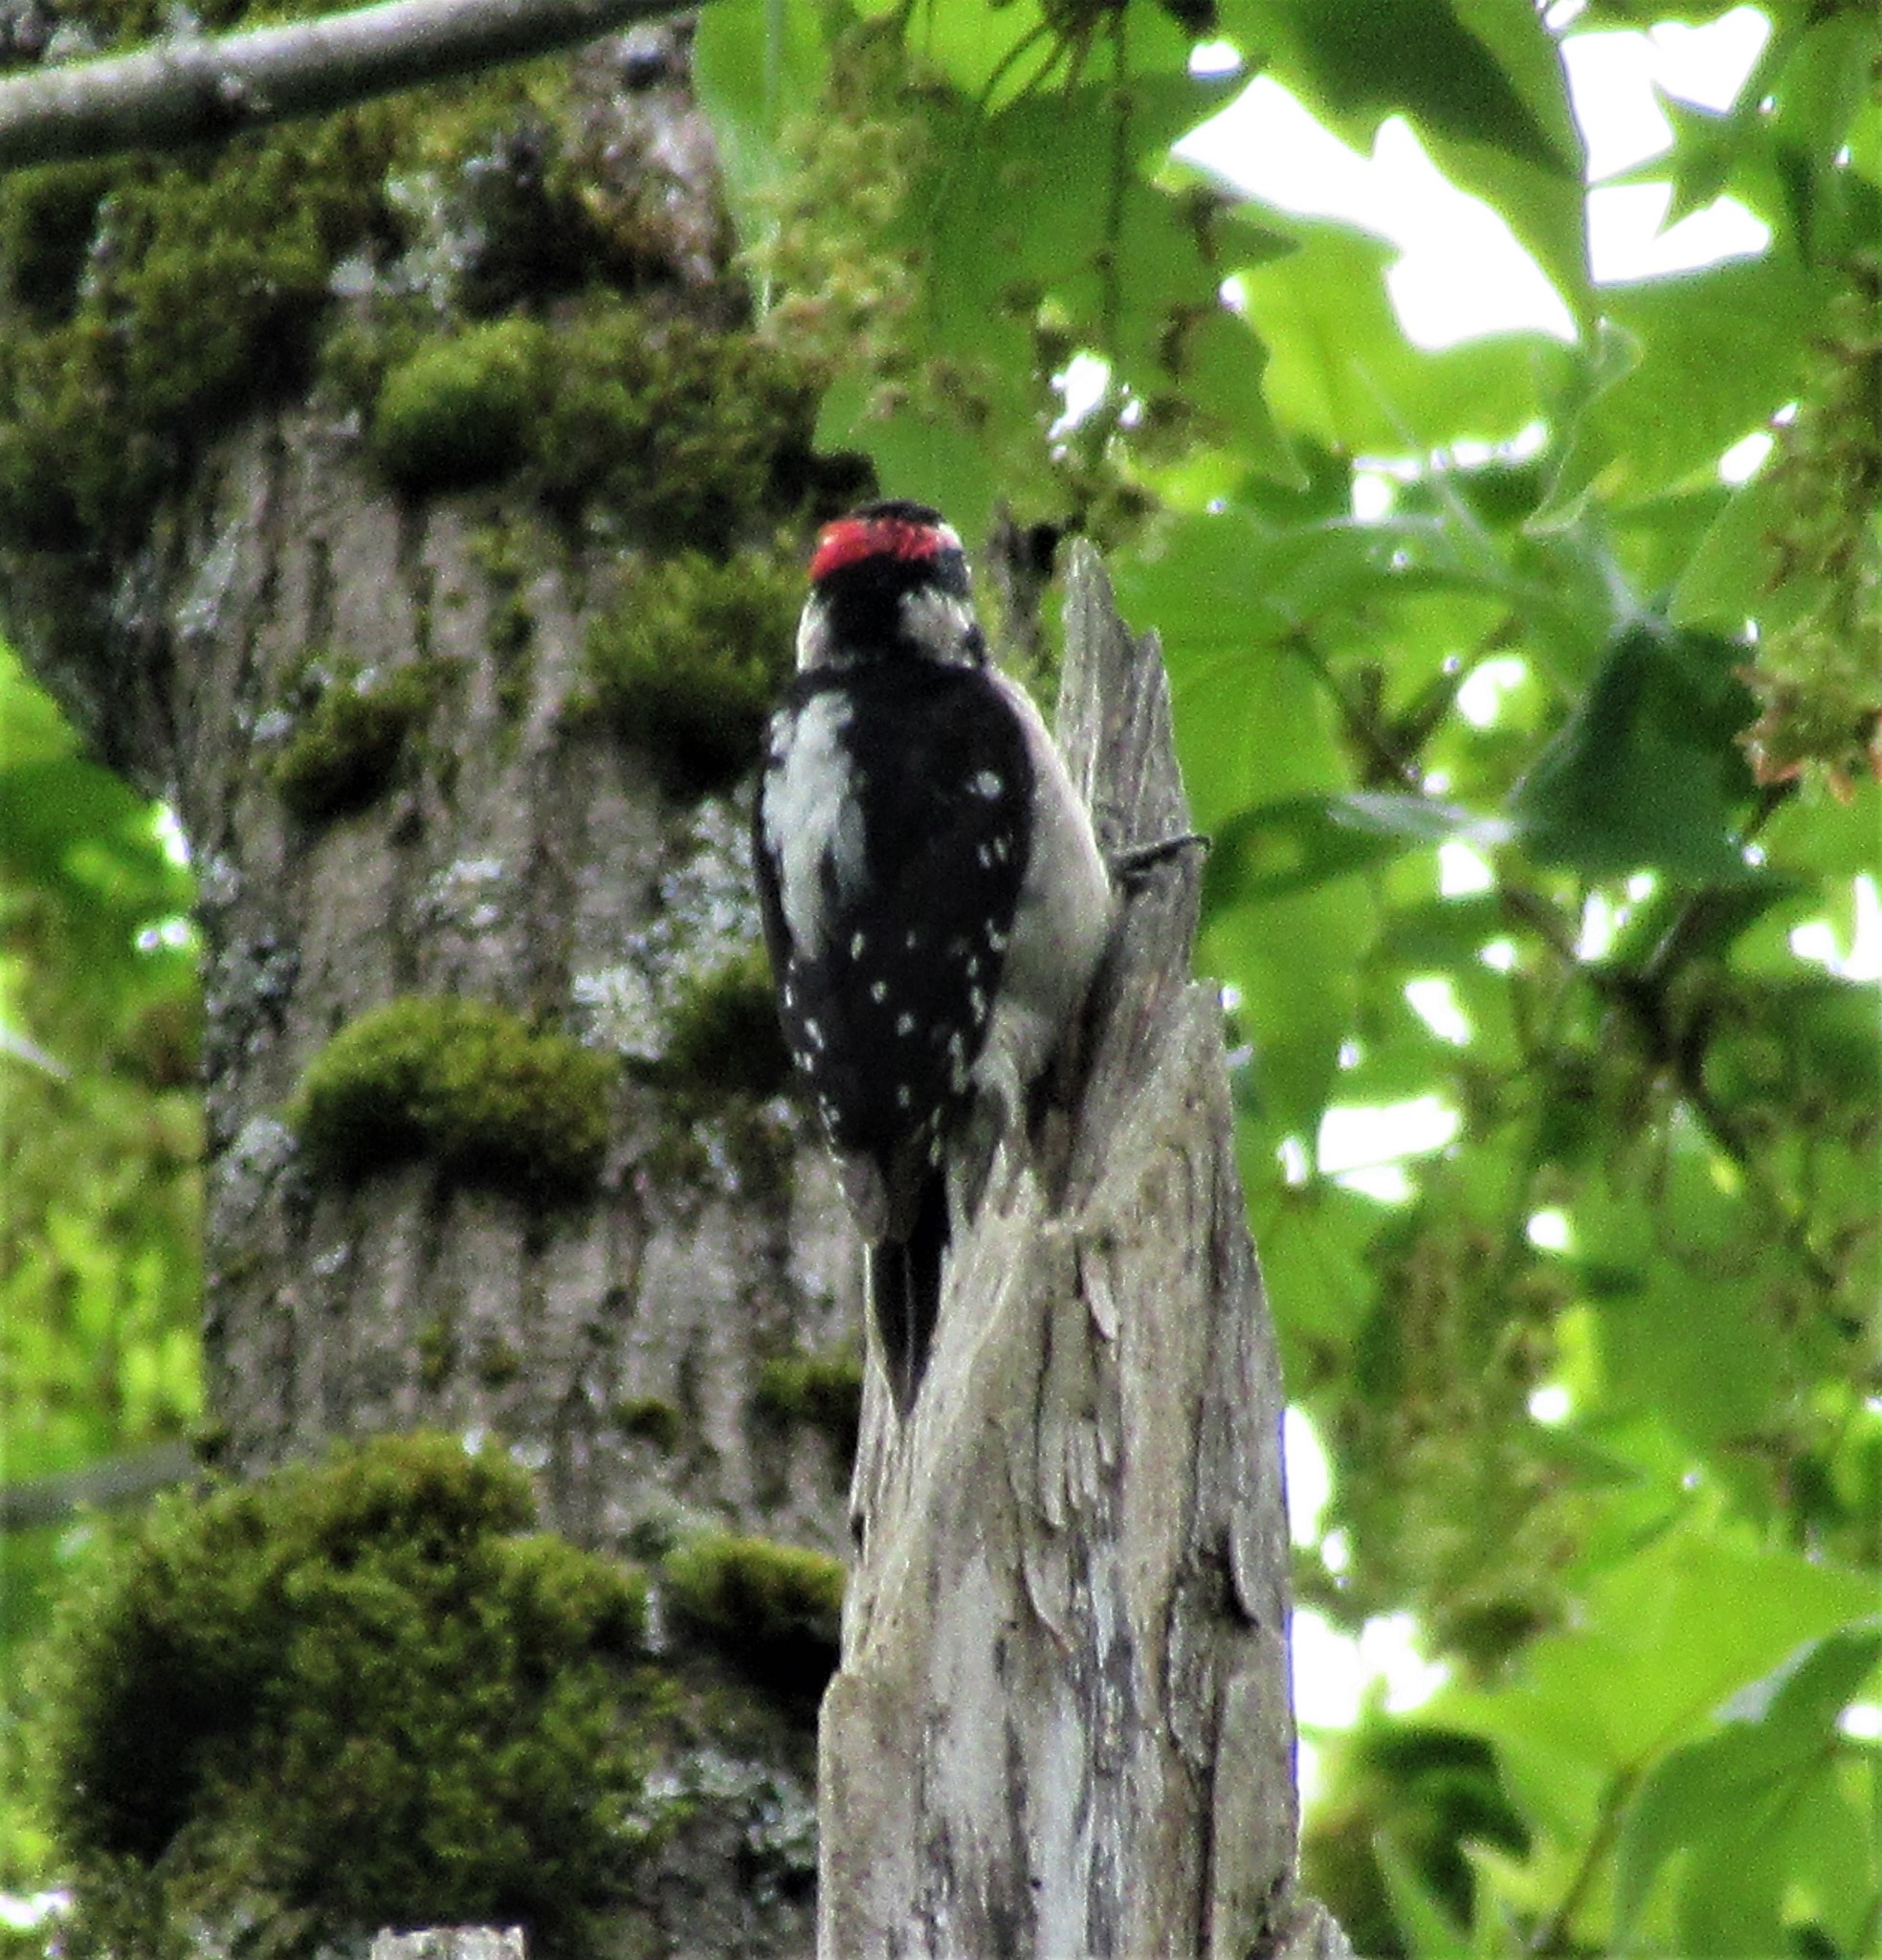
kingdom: Animalia
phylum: Chordata
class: Aves
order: Piciformes
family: Picidae
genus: Dryobates
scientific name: Dryobates pubescens
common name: Downy woodpecker
